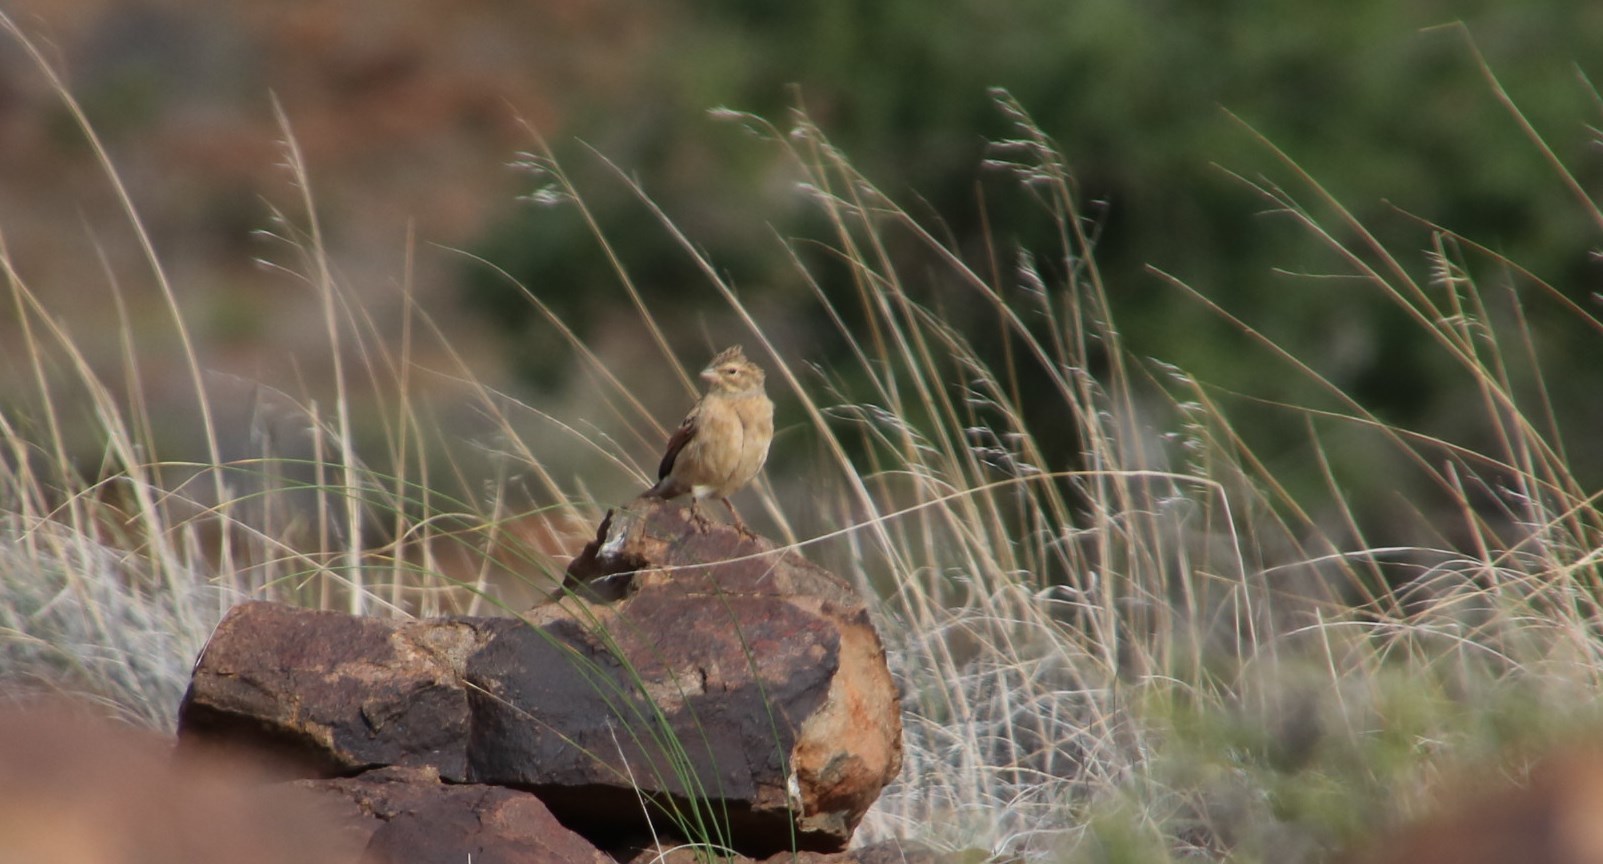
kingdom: Animalia
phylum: Chordata
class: Aves
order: Passeriformes
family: Emberizidae
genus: Emberiza
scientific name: Emberiza impetuani
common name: Lark-like bunting
